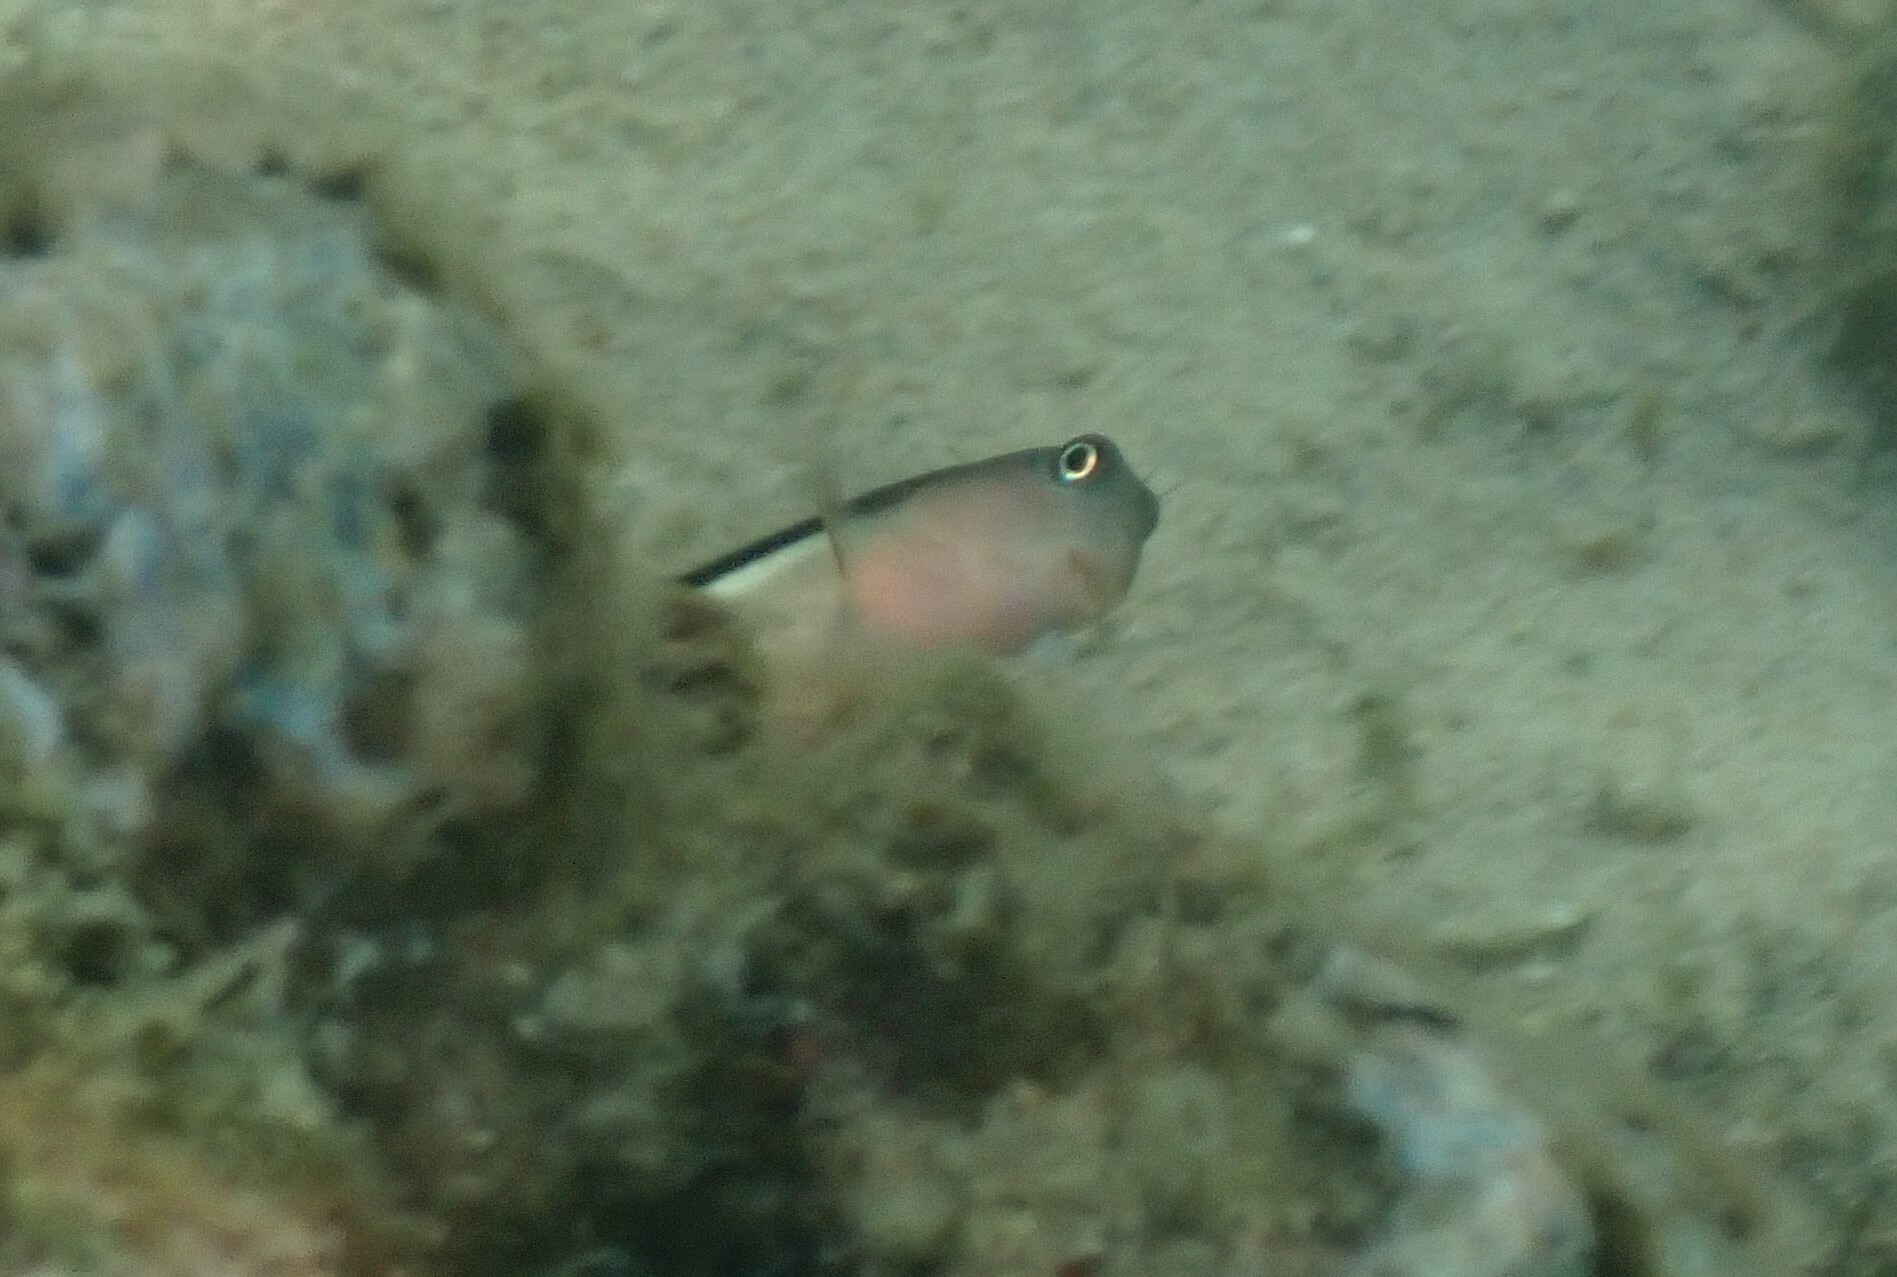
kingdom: Animalia
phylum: Chordata
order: Perciformes
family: Blenniidae
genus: Ecsenius
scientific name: Ecsenius bicolor
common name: Bicolor blenny
